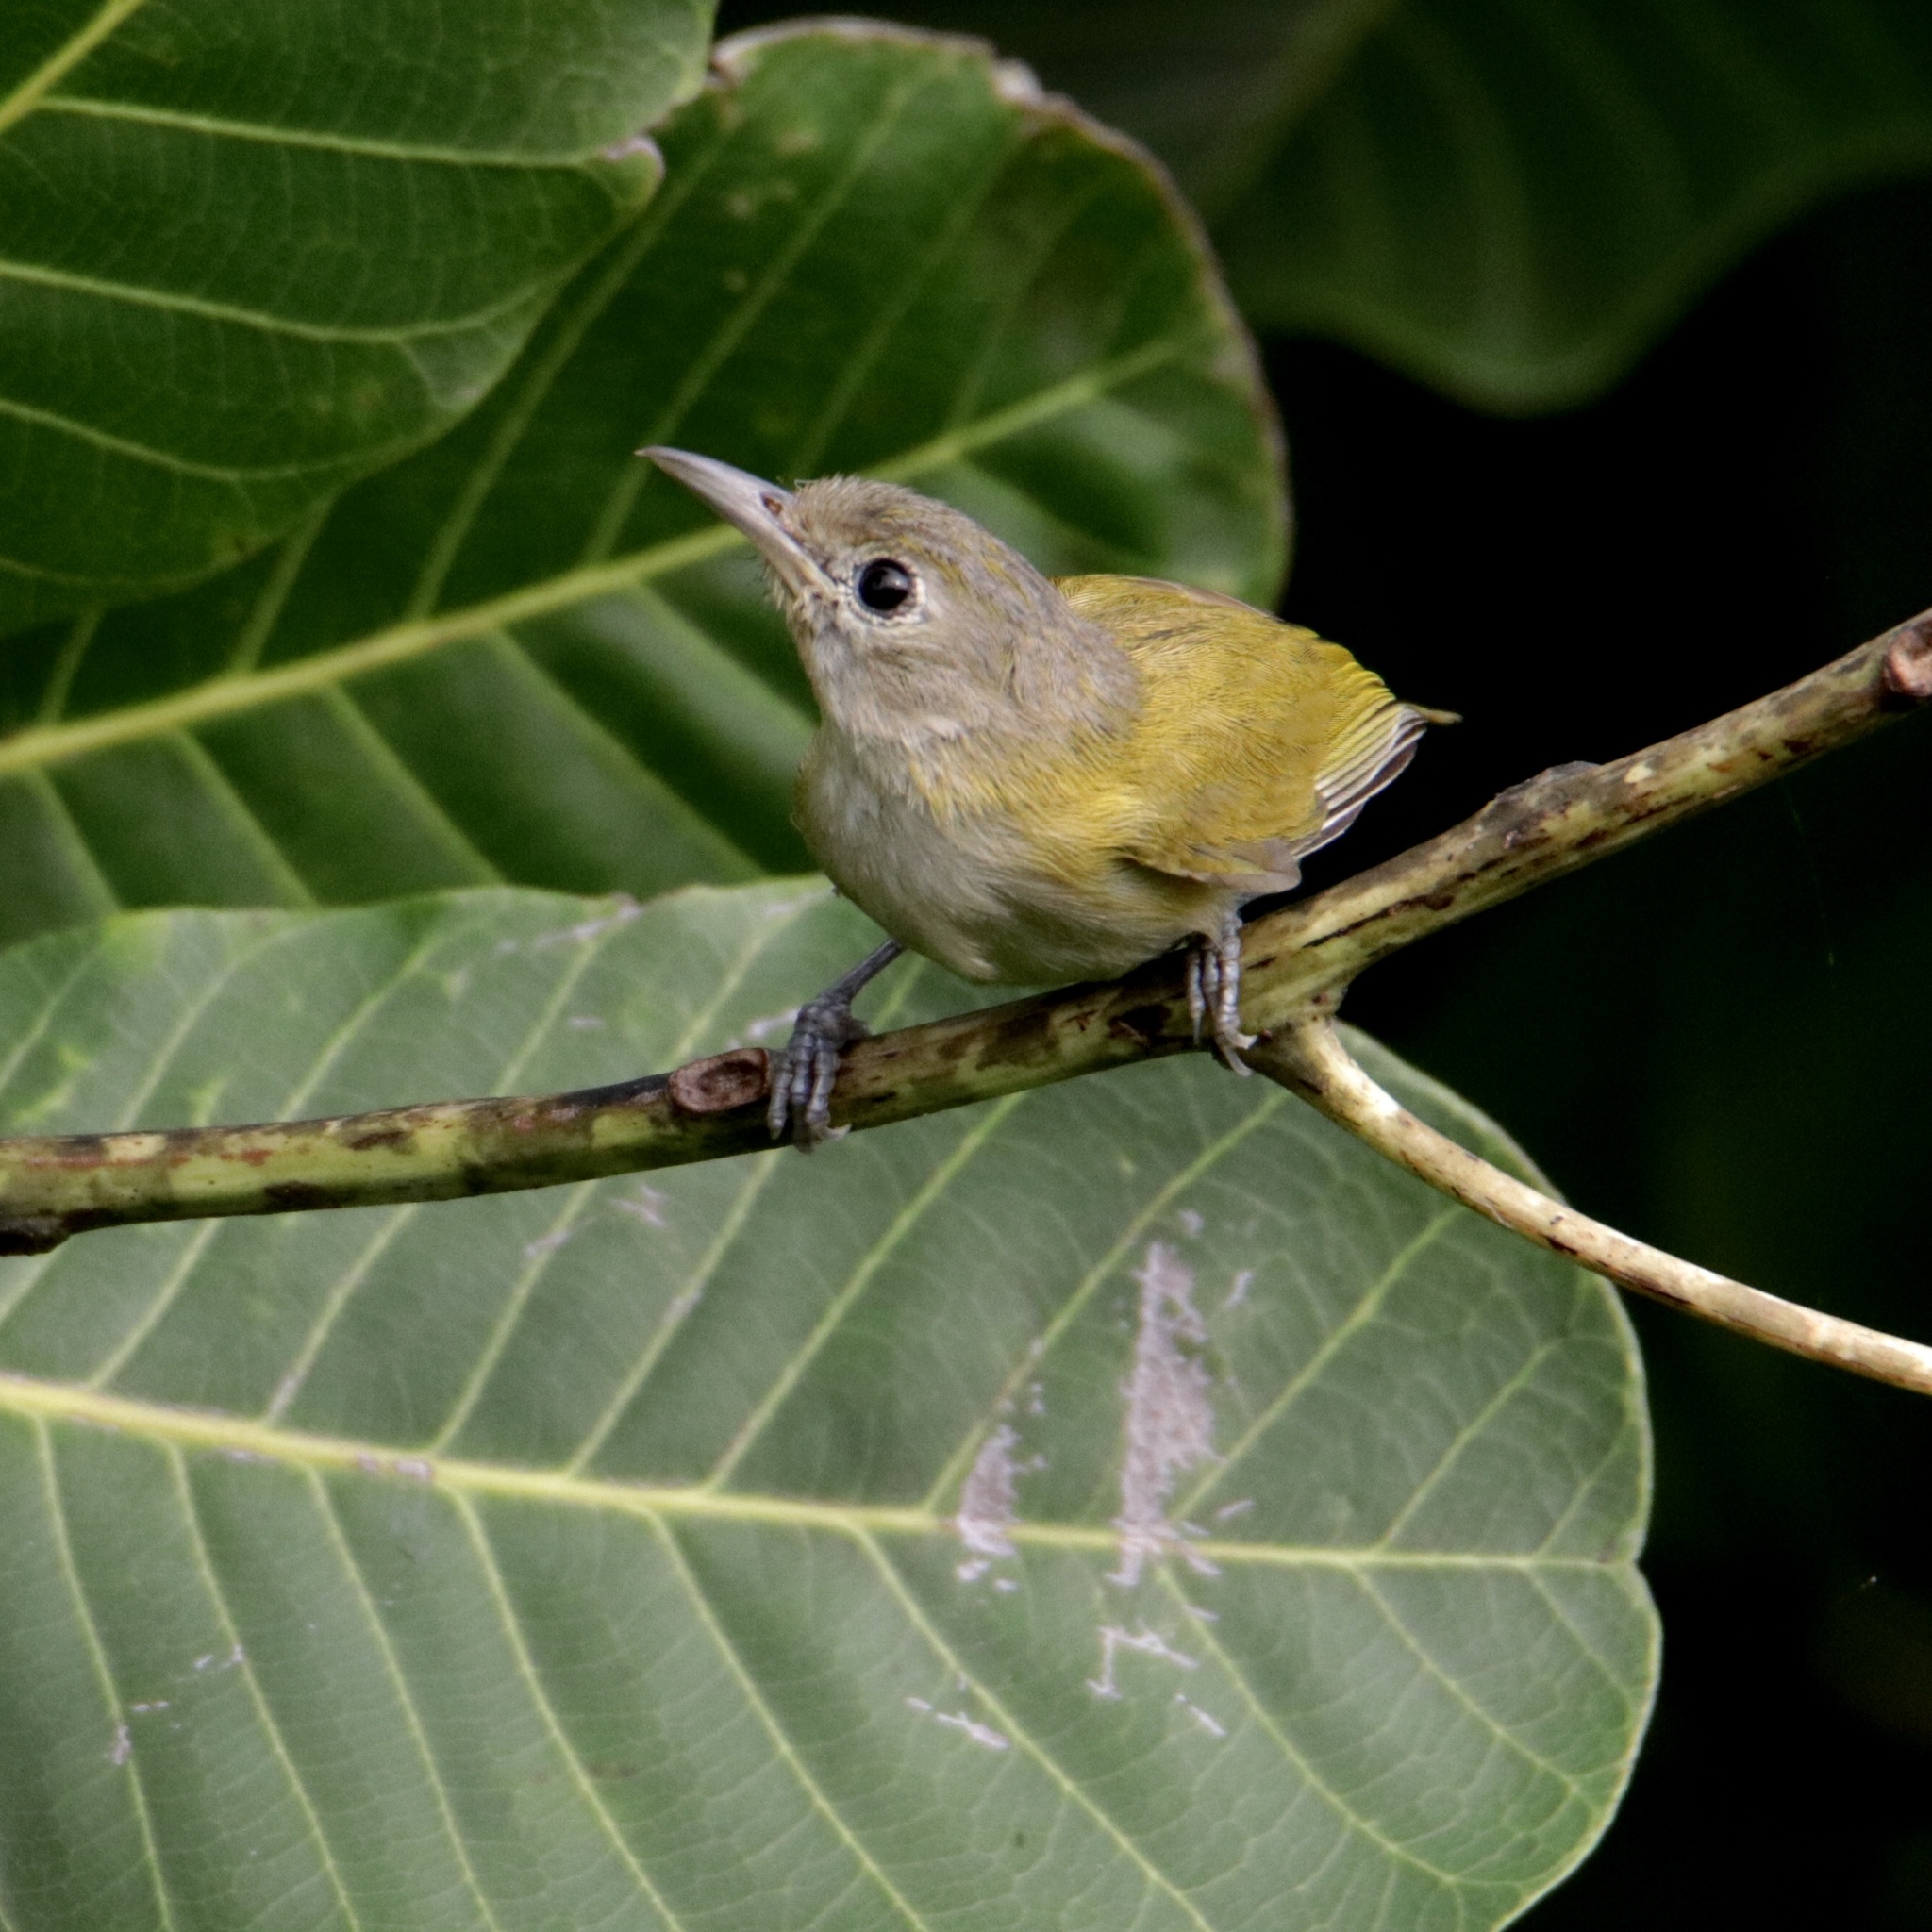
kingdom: Animalia
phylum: Chordata
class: Aves
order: Passeriformes
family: Vireonidae
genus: Hylophilus
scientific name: Hylophilus decurtatus
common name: Lesser greenlet
